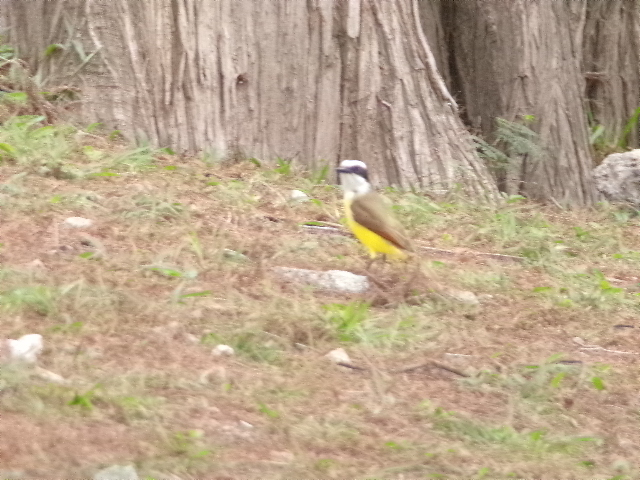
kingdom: Animalia
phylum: Chordata
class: Aves
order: Passeriformes
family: Tyrannidae
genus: Pitangus
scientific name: Pitangus sulphuratus
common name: Great kiskadee
